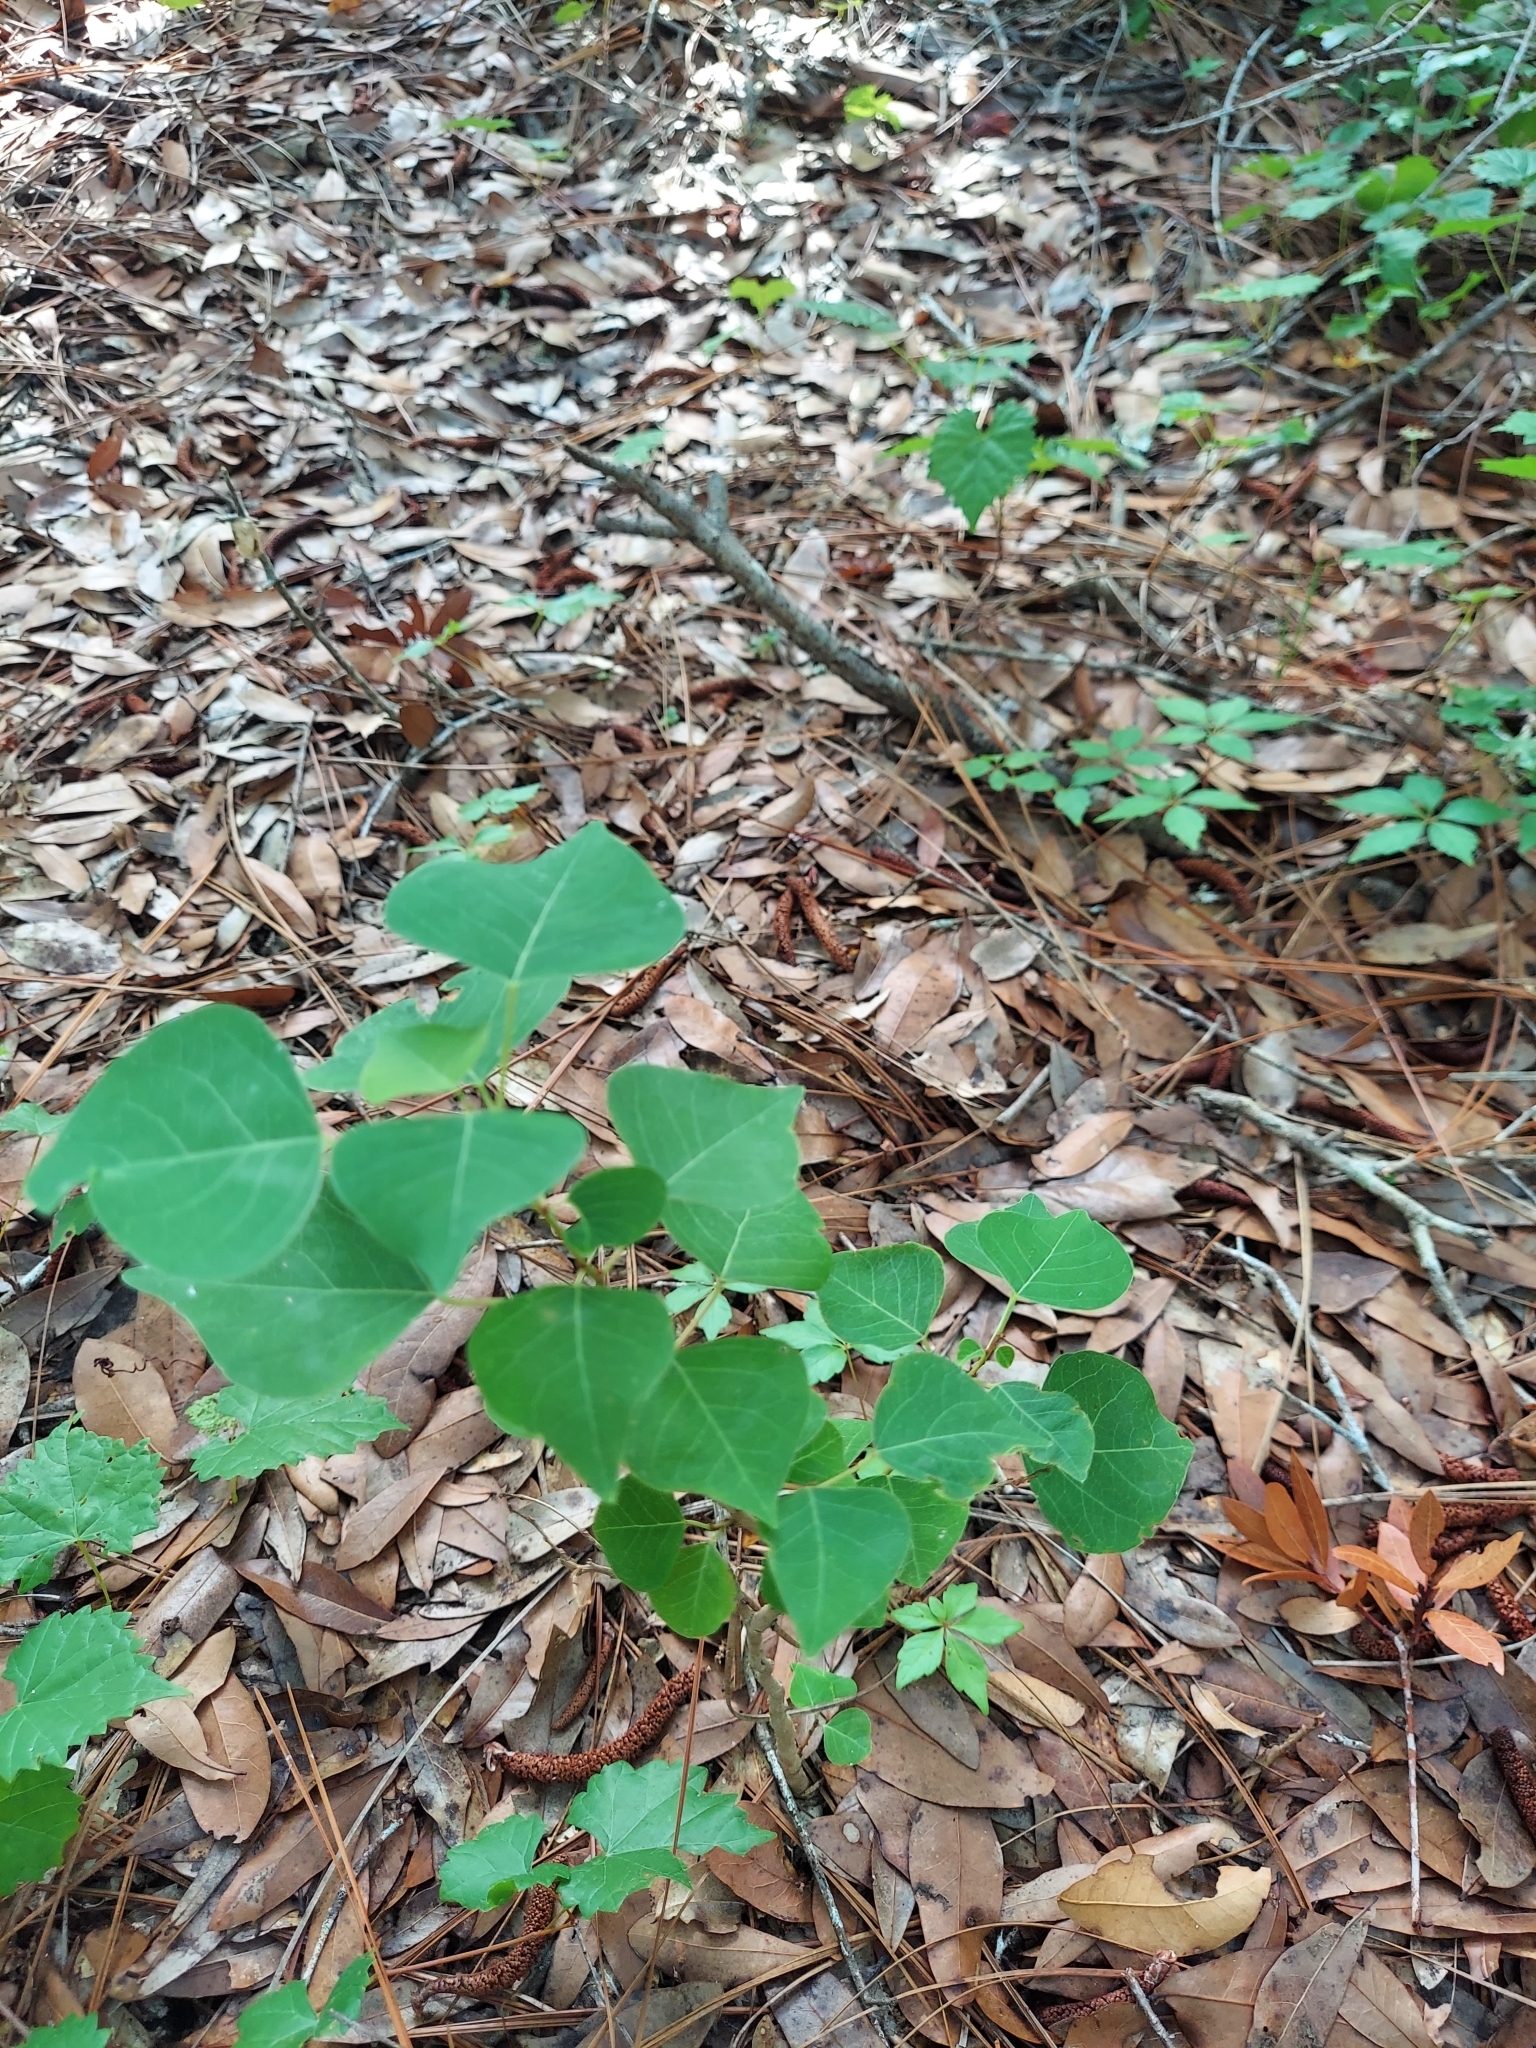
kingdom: Plantae
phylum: Tracheophyta
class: Magnoliopsida
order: Malpighiales
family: Euphorbiaceae
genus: Triadica
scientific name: Triadica sebifera
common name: Chinese tallow
